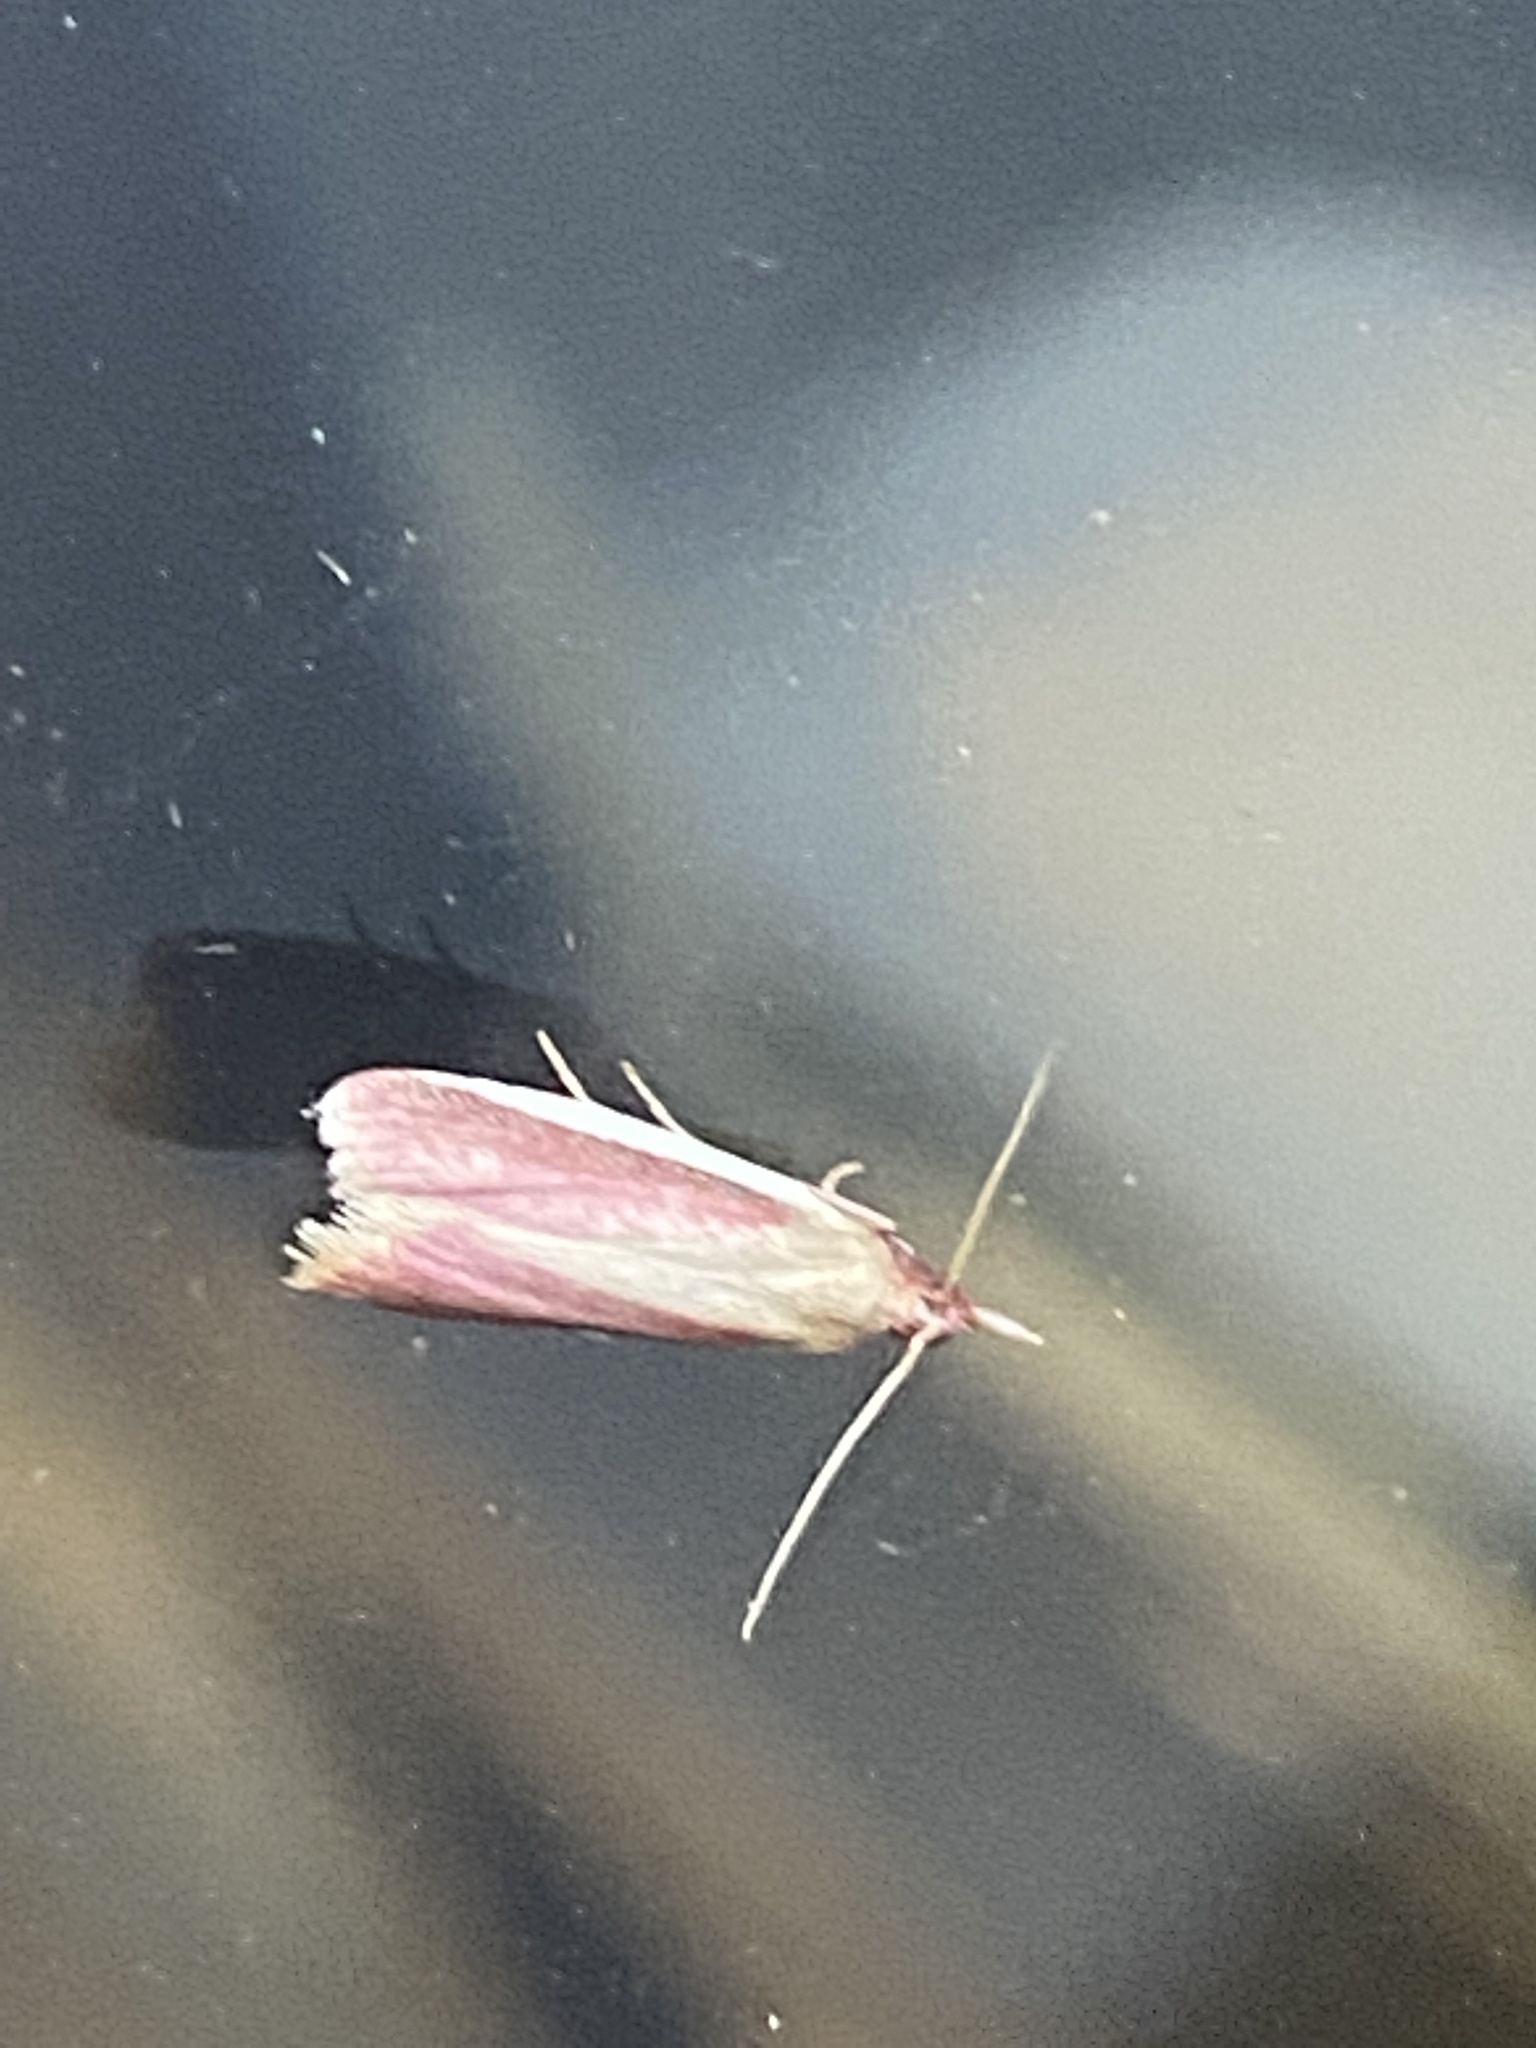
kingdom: Animalia
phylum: Arthropoda
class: Insecta
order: Lepidoptera
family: Pyralidae
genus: Peoria
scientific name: Peoria approximella
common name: Carmine snout
